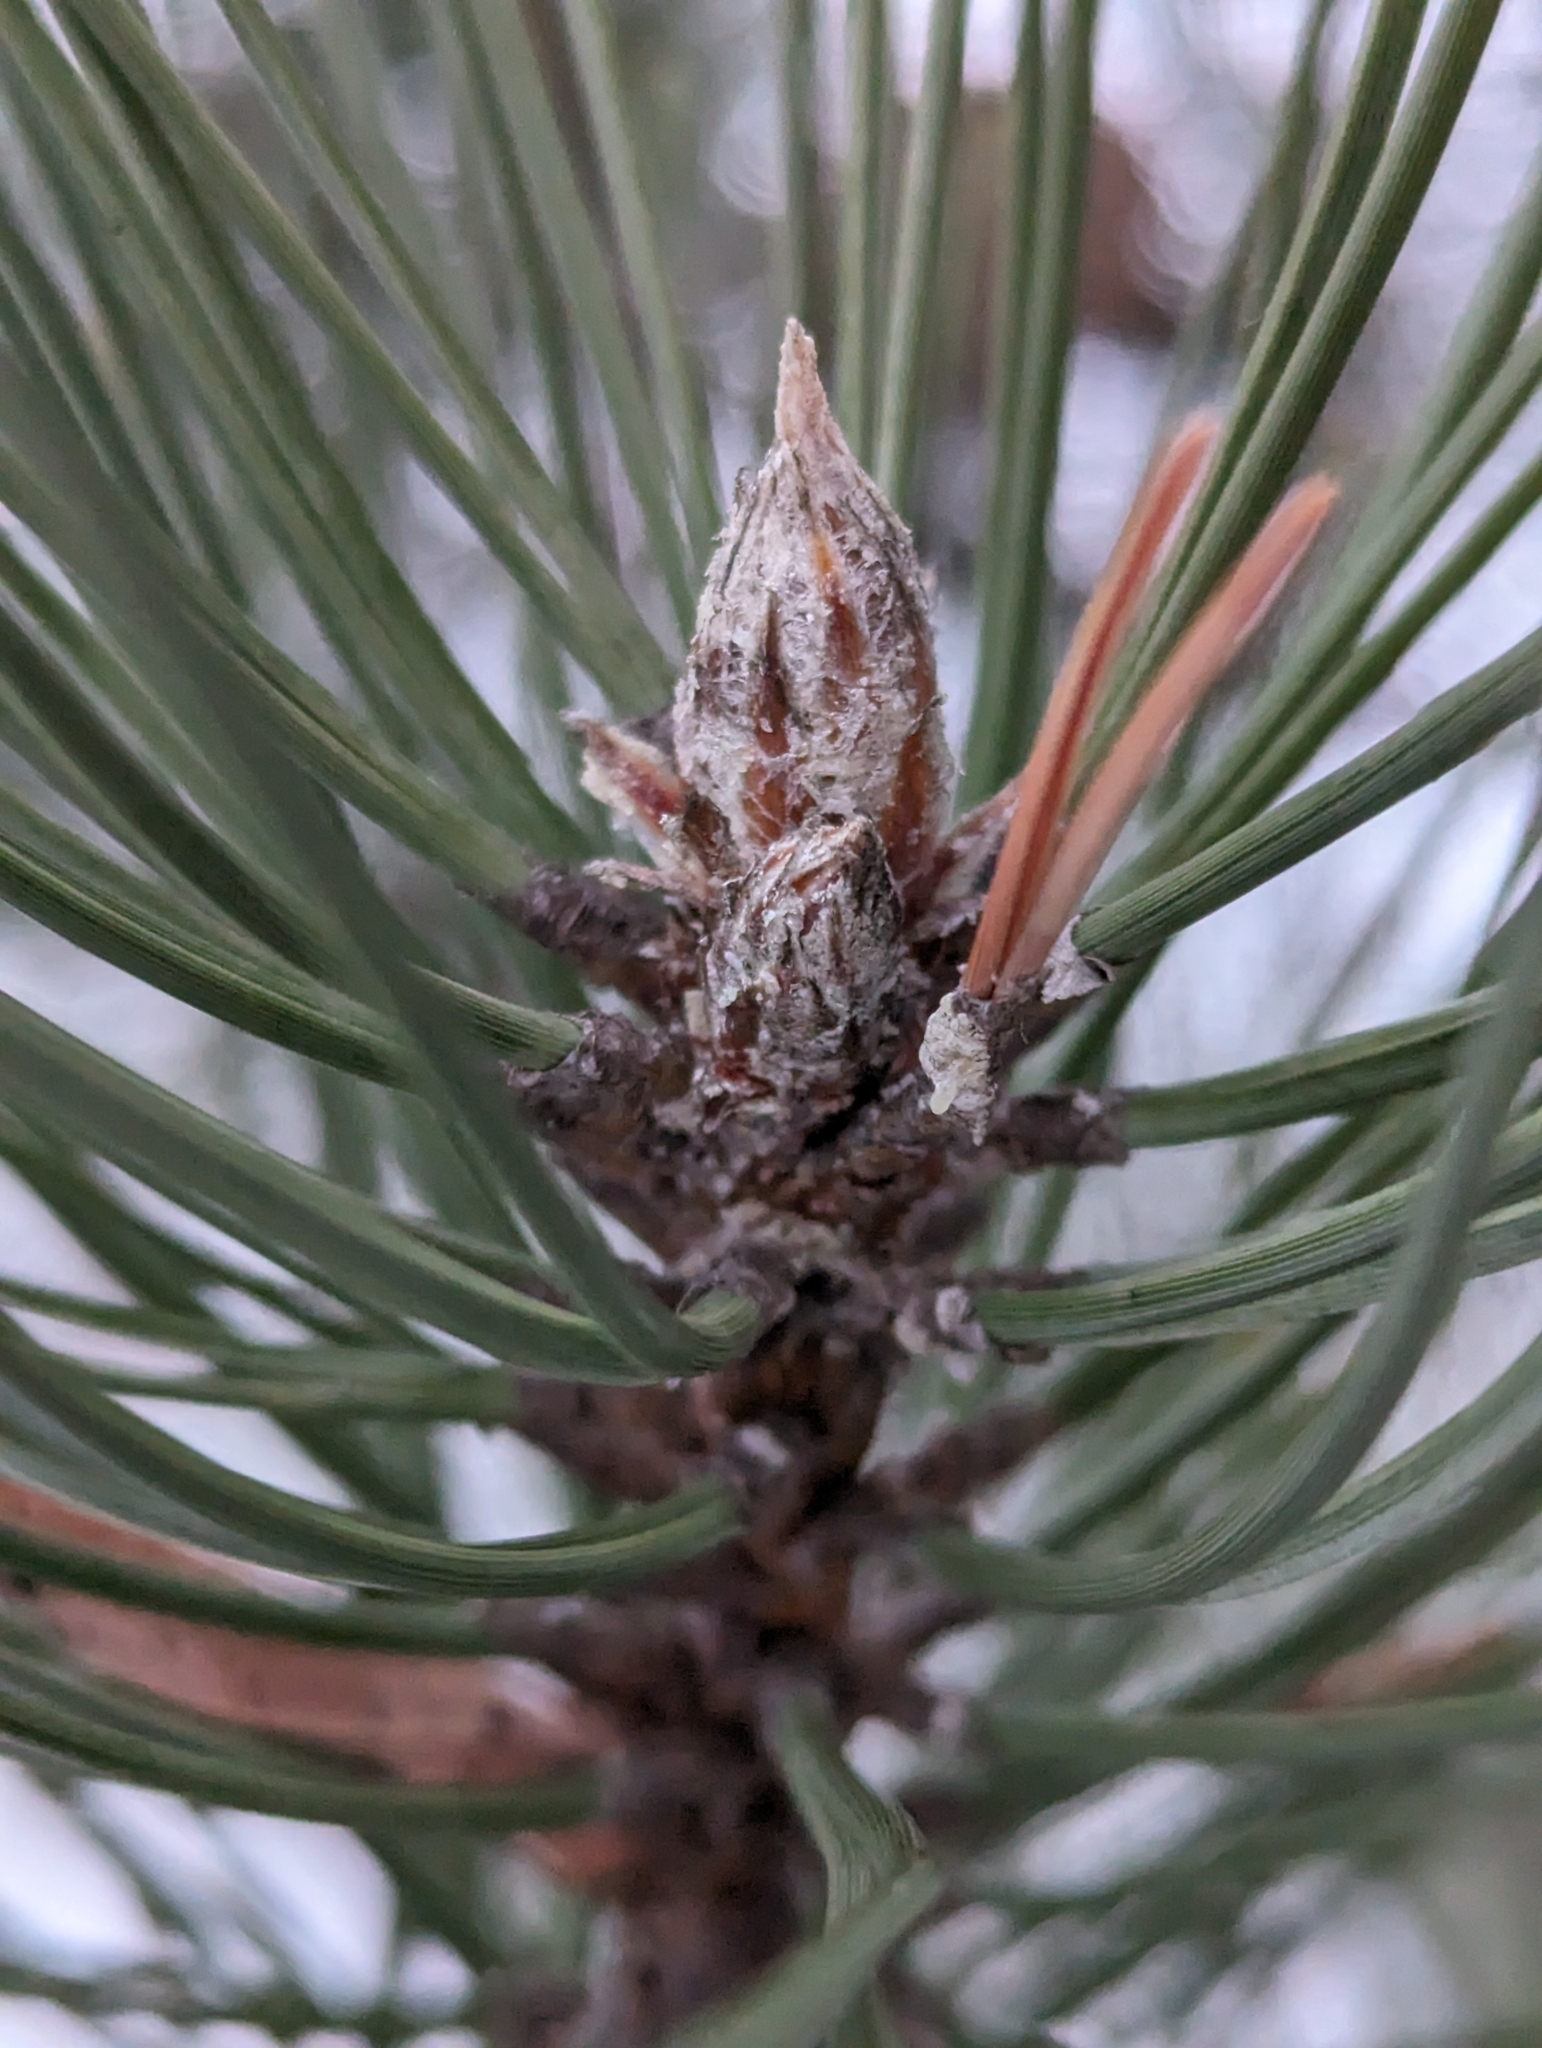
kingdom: Plantae
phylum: Tracheophyta
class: Pinopsida
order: Pinales
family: Pinaceae
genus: Pinus
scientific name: Pinus sylvestris
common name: Scots pine
